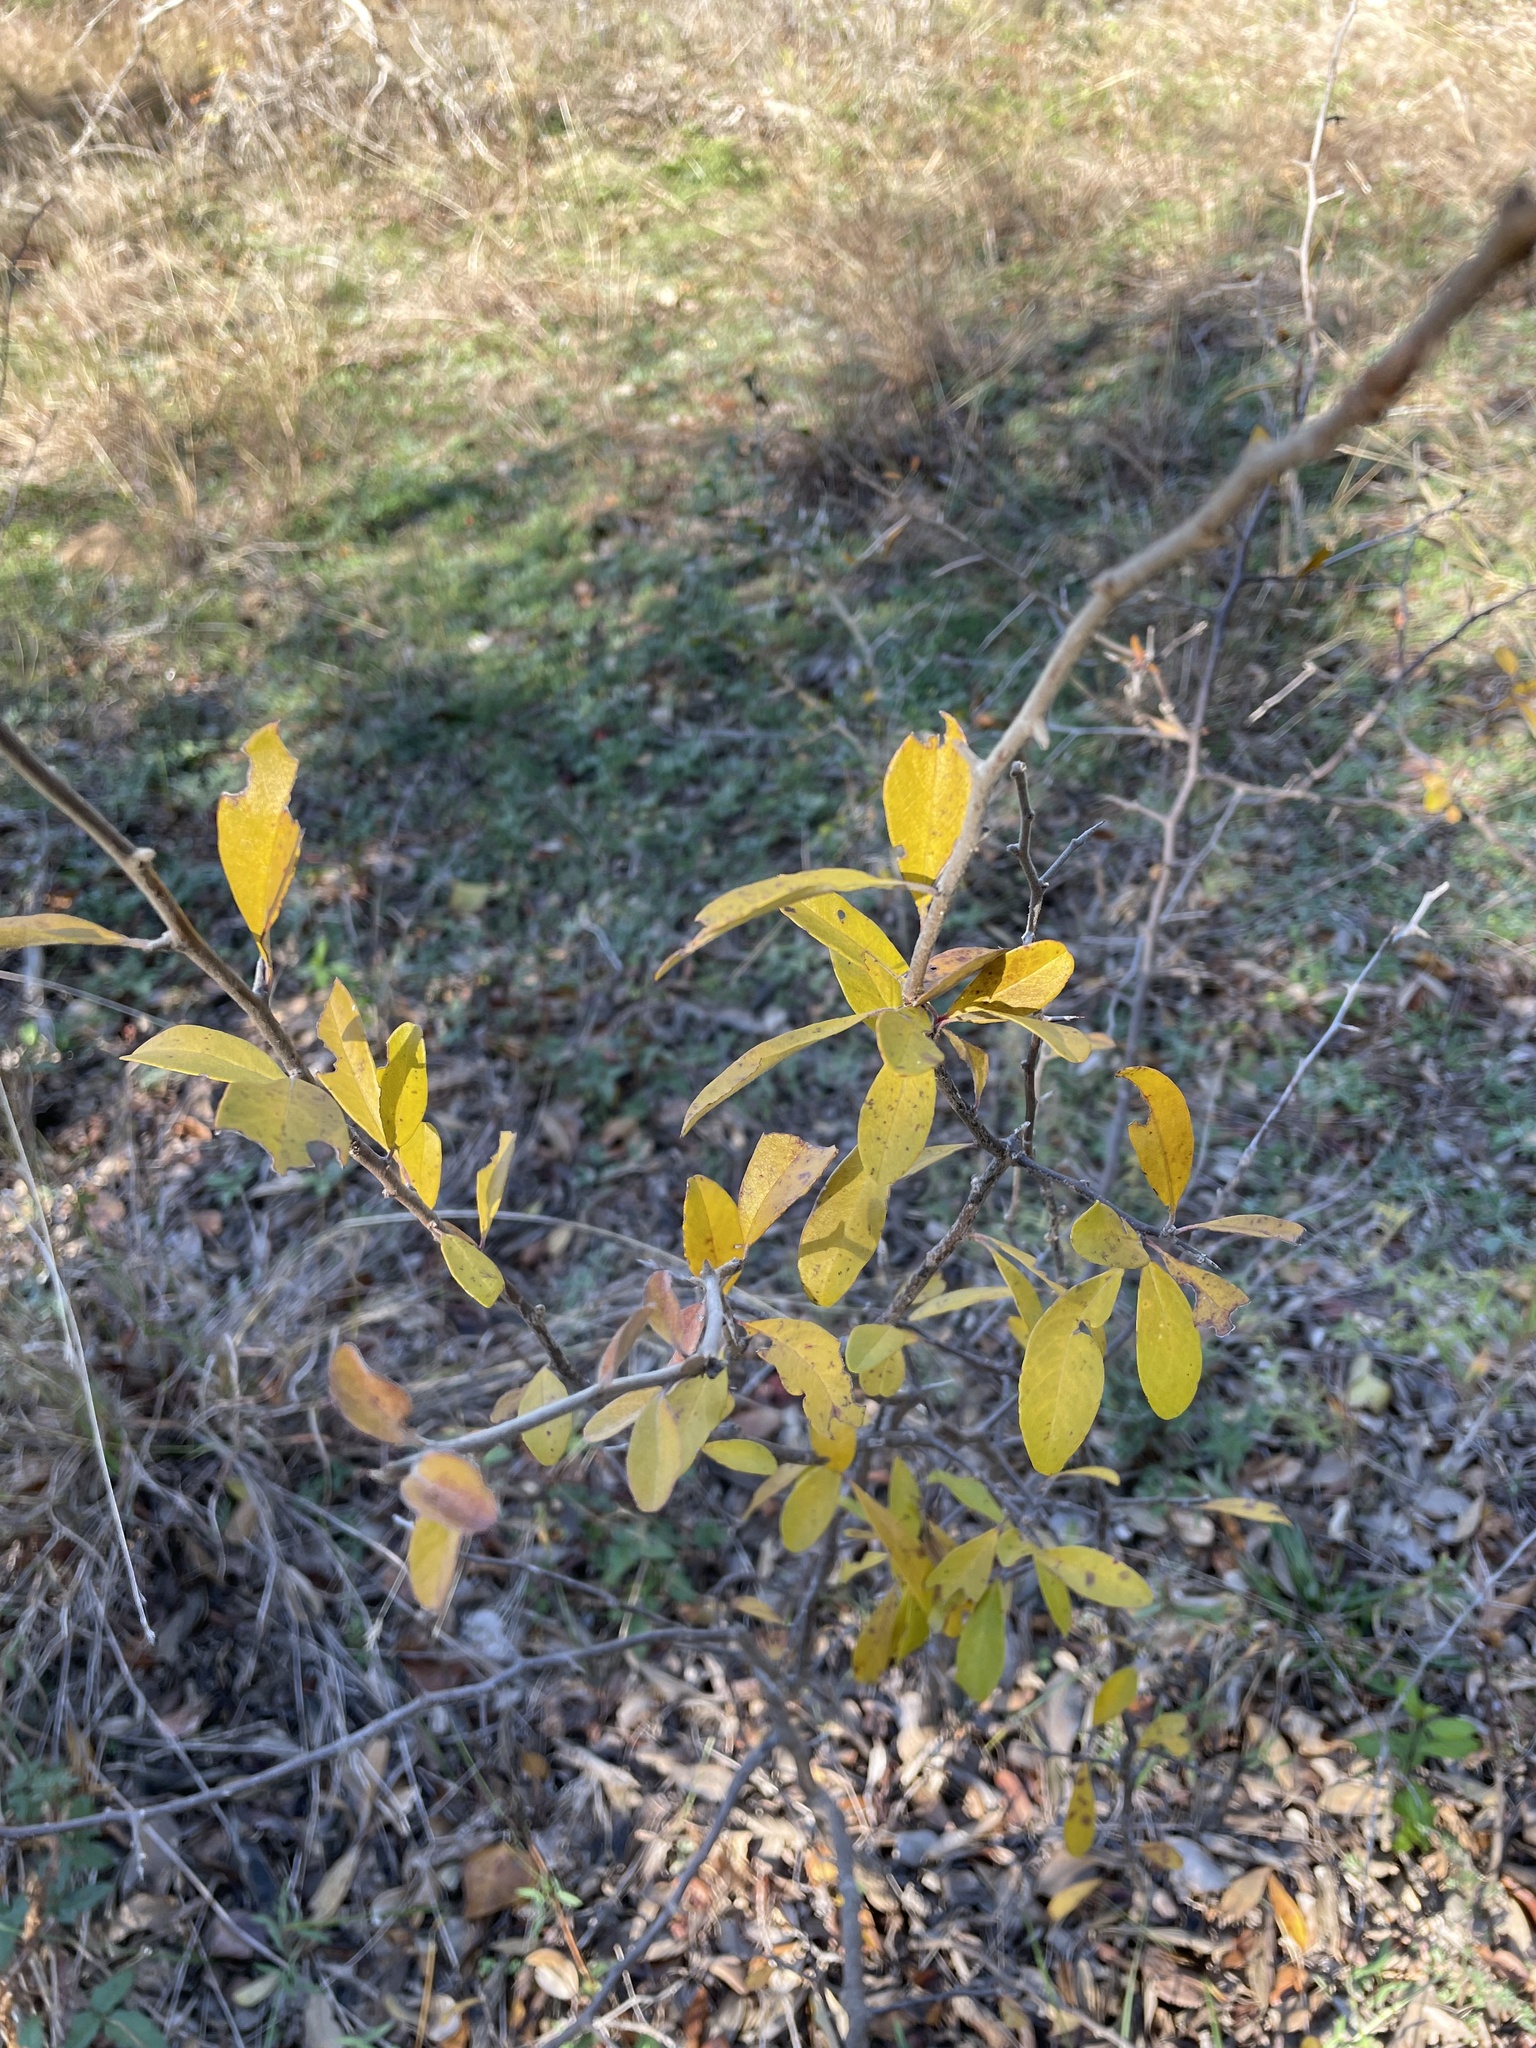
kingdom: Plantae
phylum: Tracheophyta
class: Magnoliopsida
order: Ericales
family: Sapotaceae
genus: Sideroxylon
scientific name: Sideroxylon lanuginosum
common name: Chittamwood
